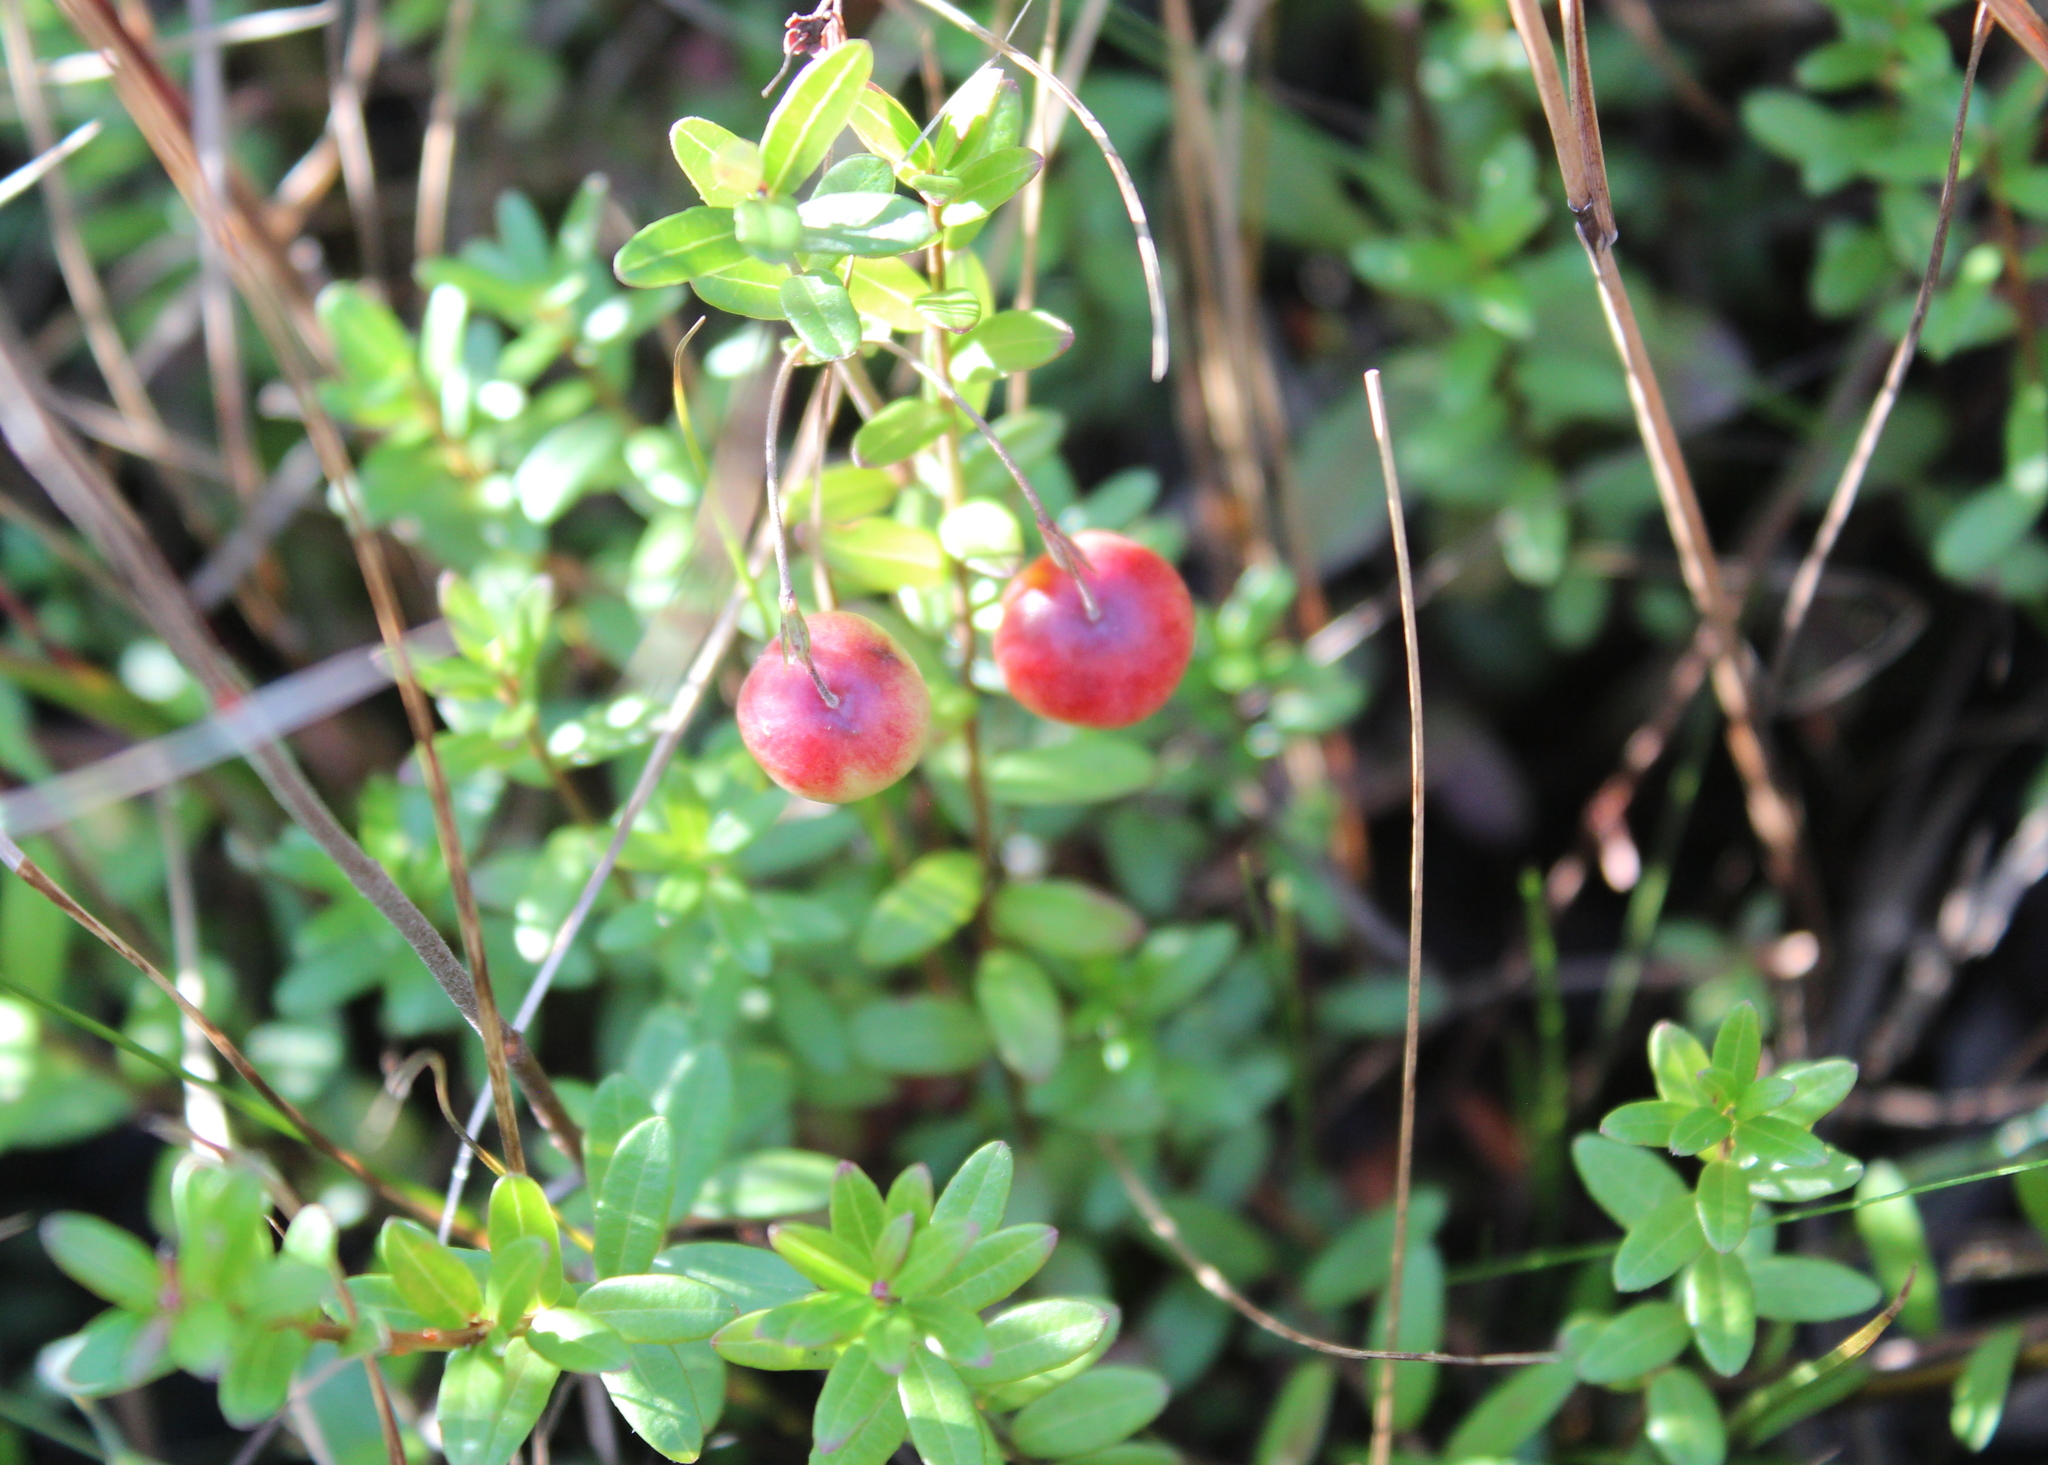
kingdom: Plantae
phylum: Tracheophyta
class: Magnoliopsida
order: Ericales
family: Ericaceae
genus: Vaccinium
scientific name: Vaccinium macrocarpon
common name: American cranberry
